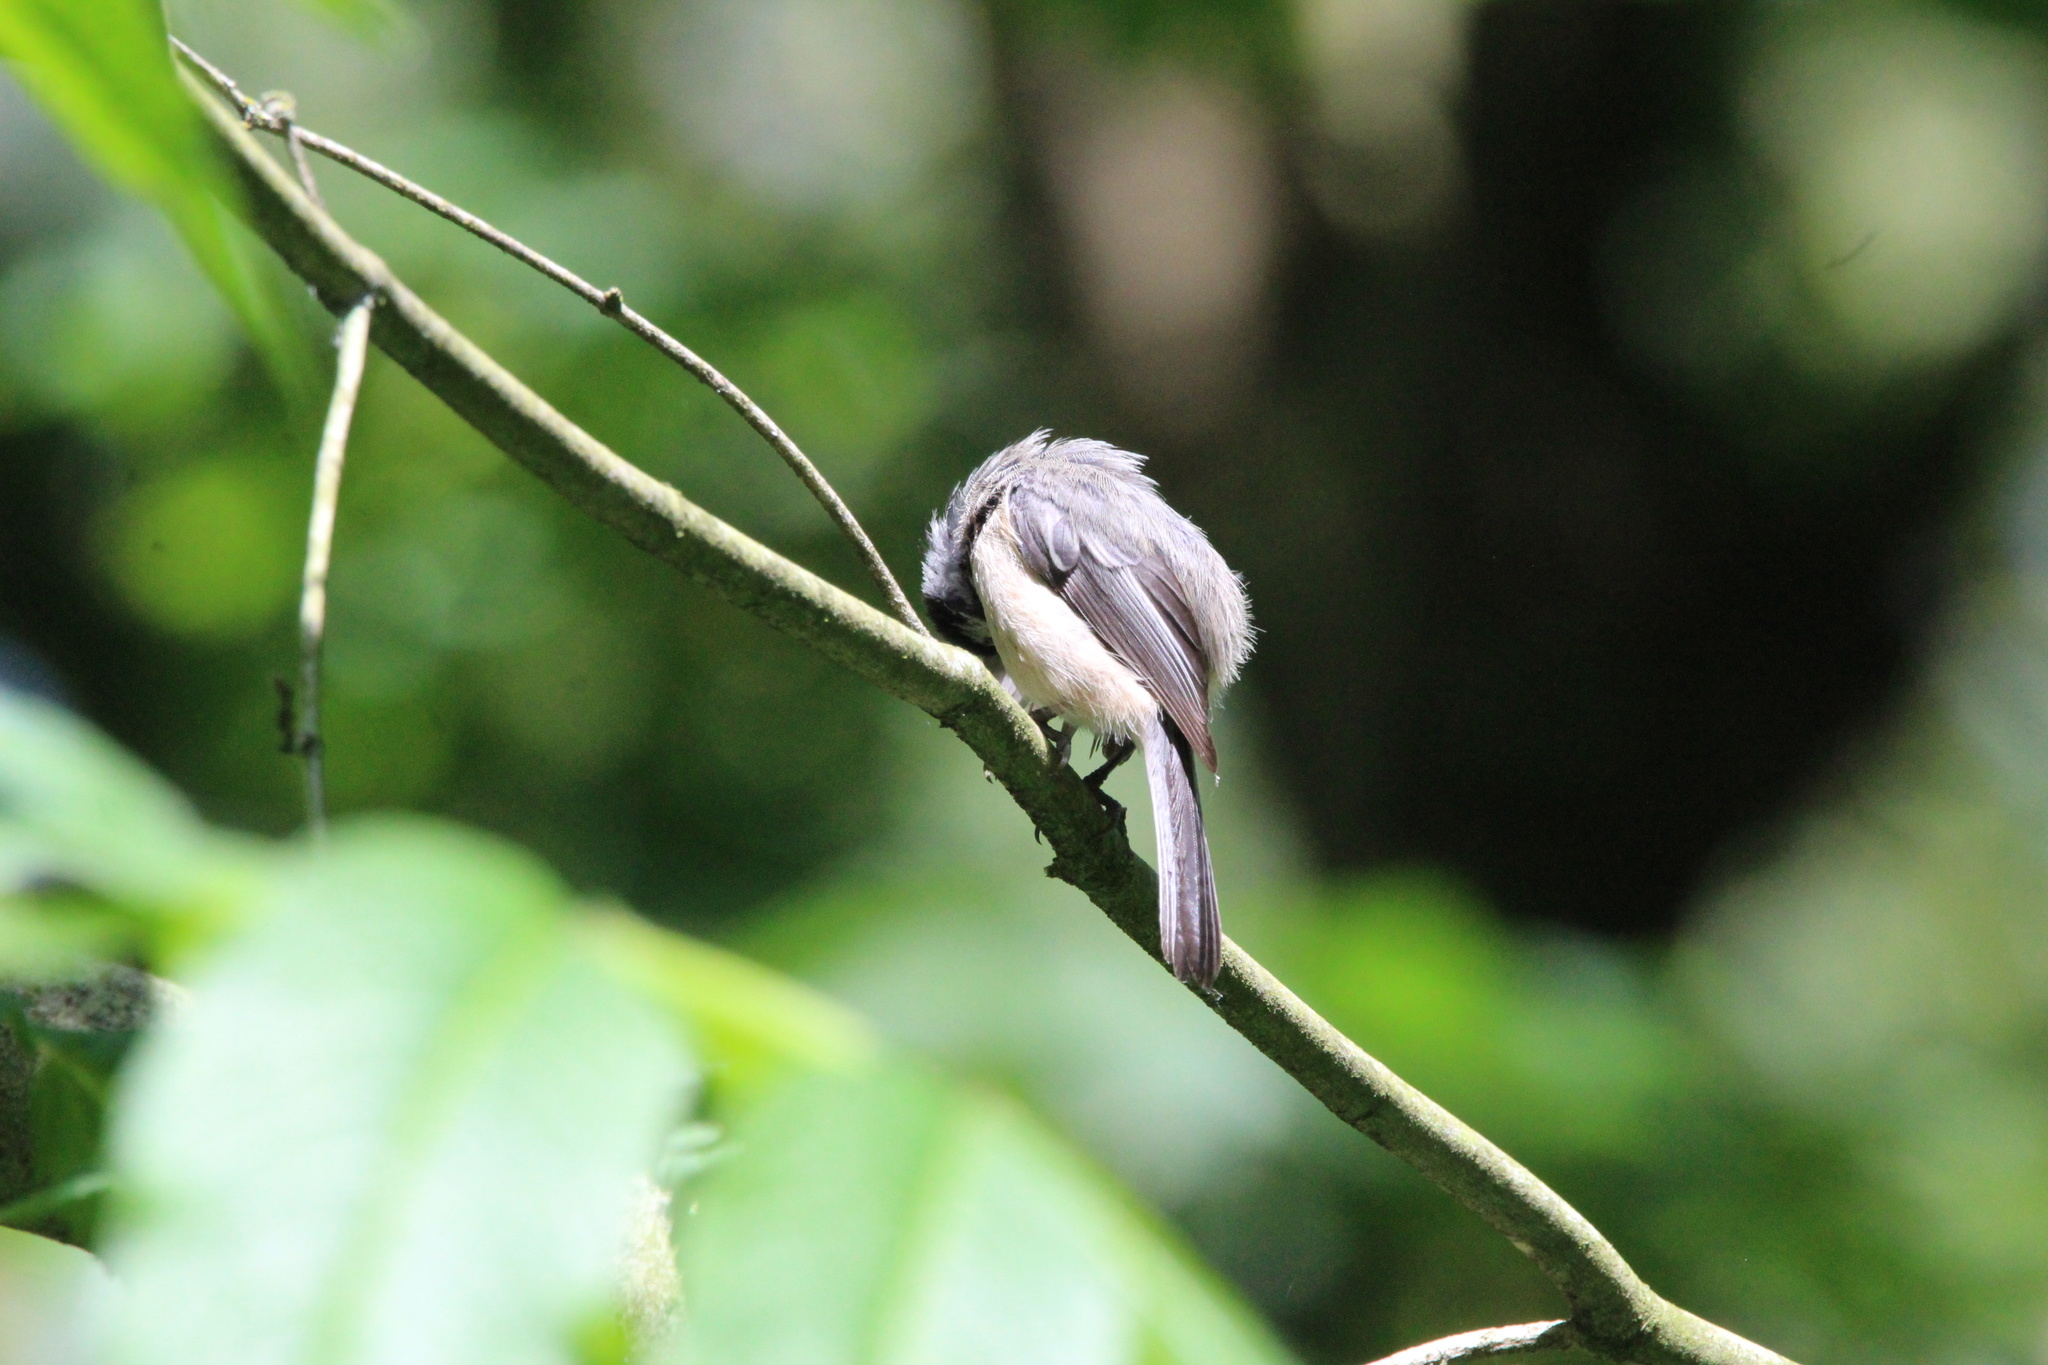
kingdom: Animalia
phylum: Chordata
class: Aves
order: Passeriformes
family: Paridae
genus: Poecile
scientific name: Poecile atricapillus
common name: Black-capped chickadee
